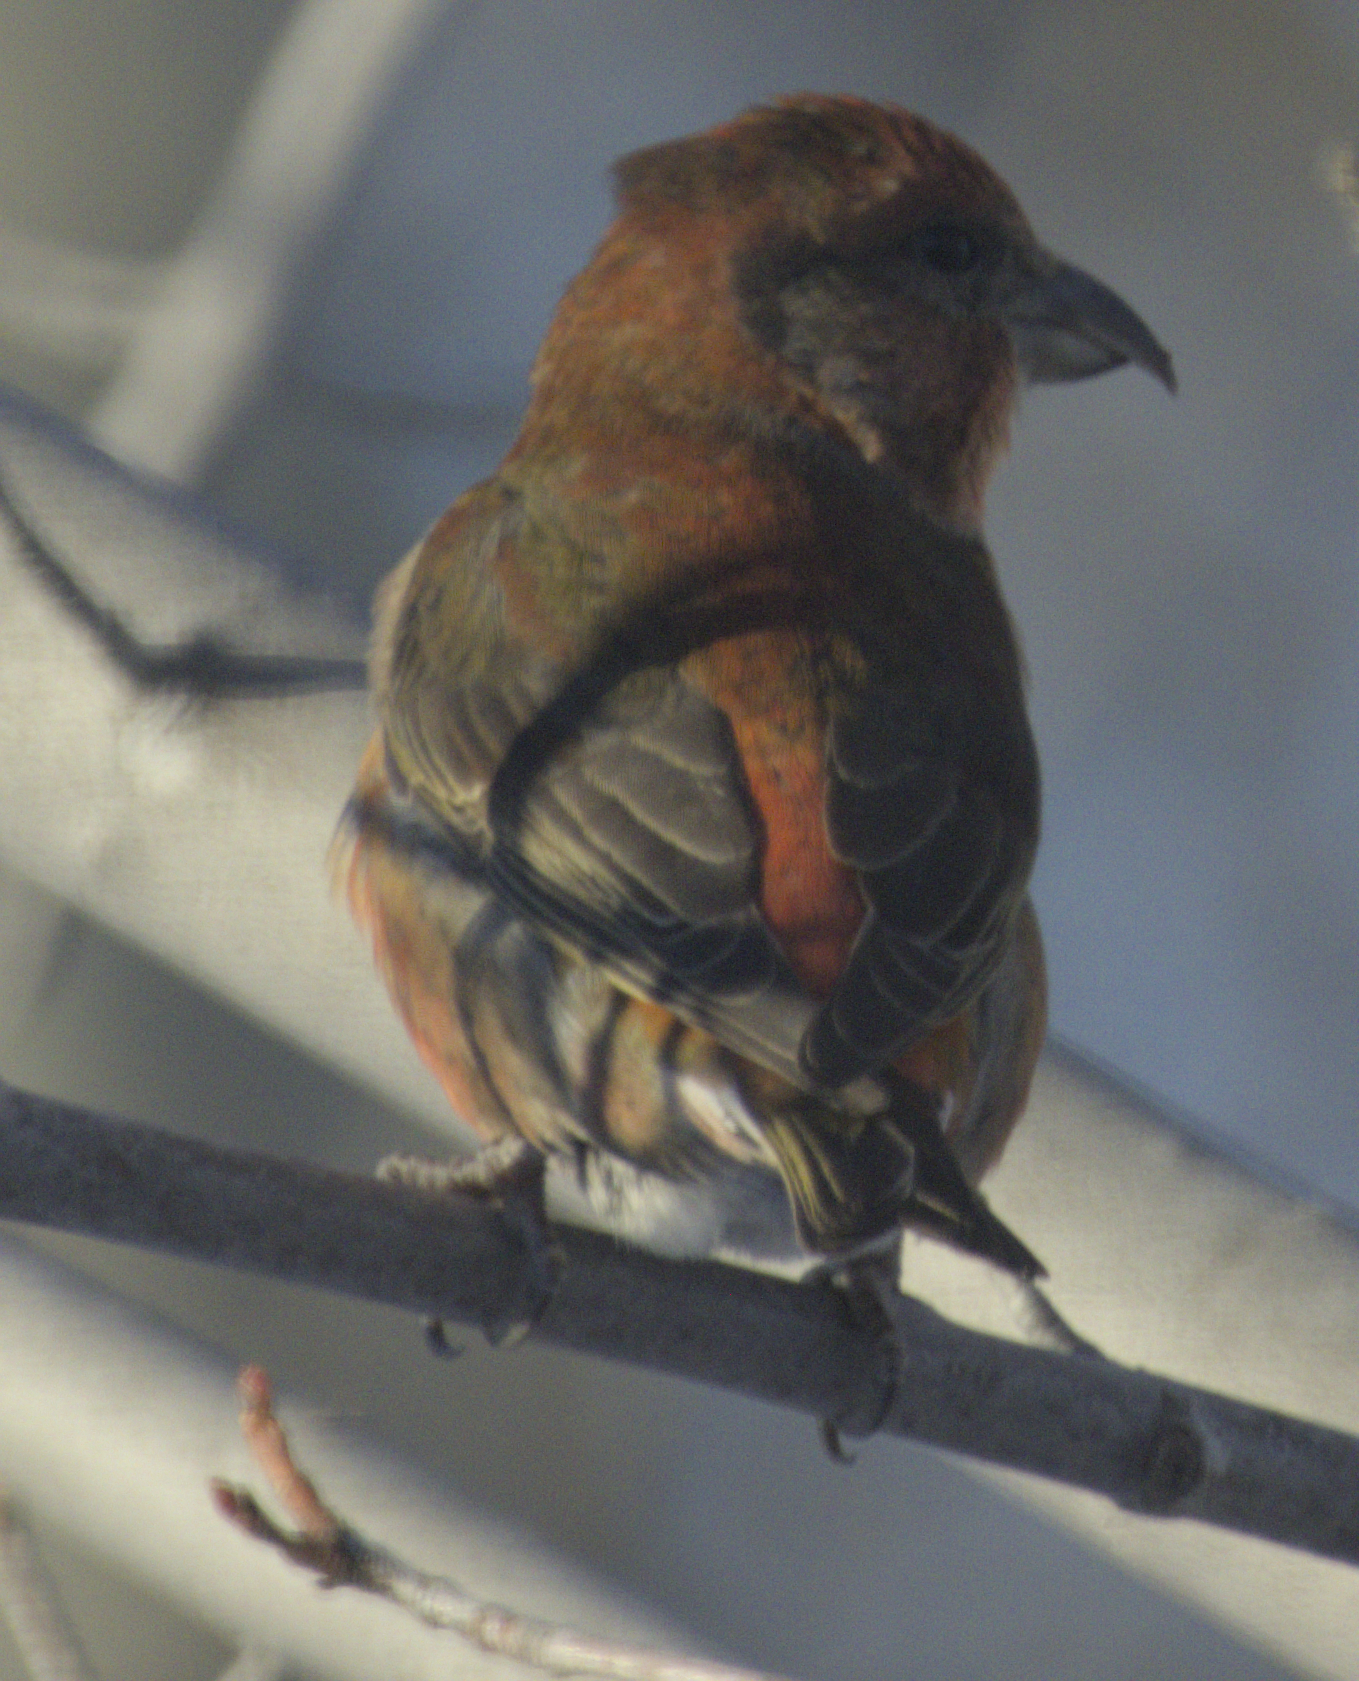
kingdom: Animalia
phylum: Chordata
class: Aves
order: Passeriformes
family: Fringillidae
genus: Loxia
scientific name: Loxia curvirostra
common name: Red crossbill
